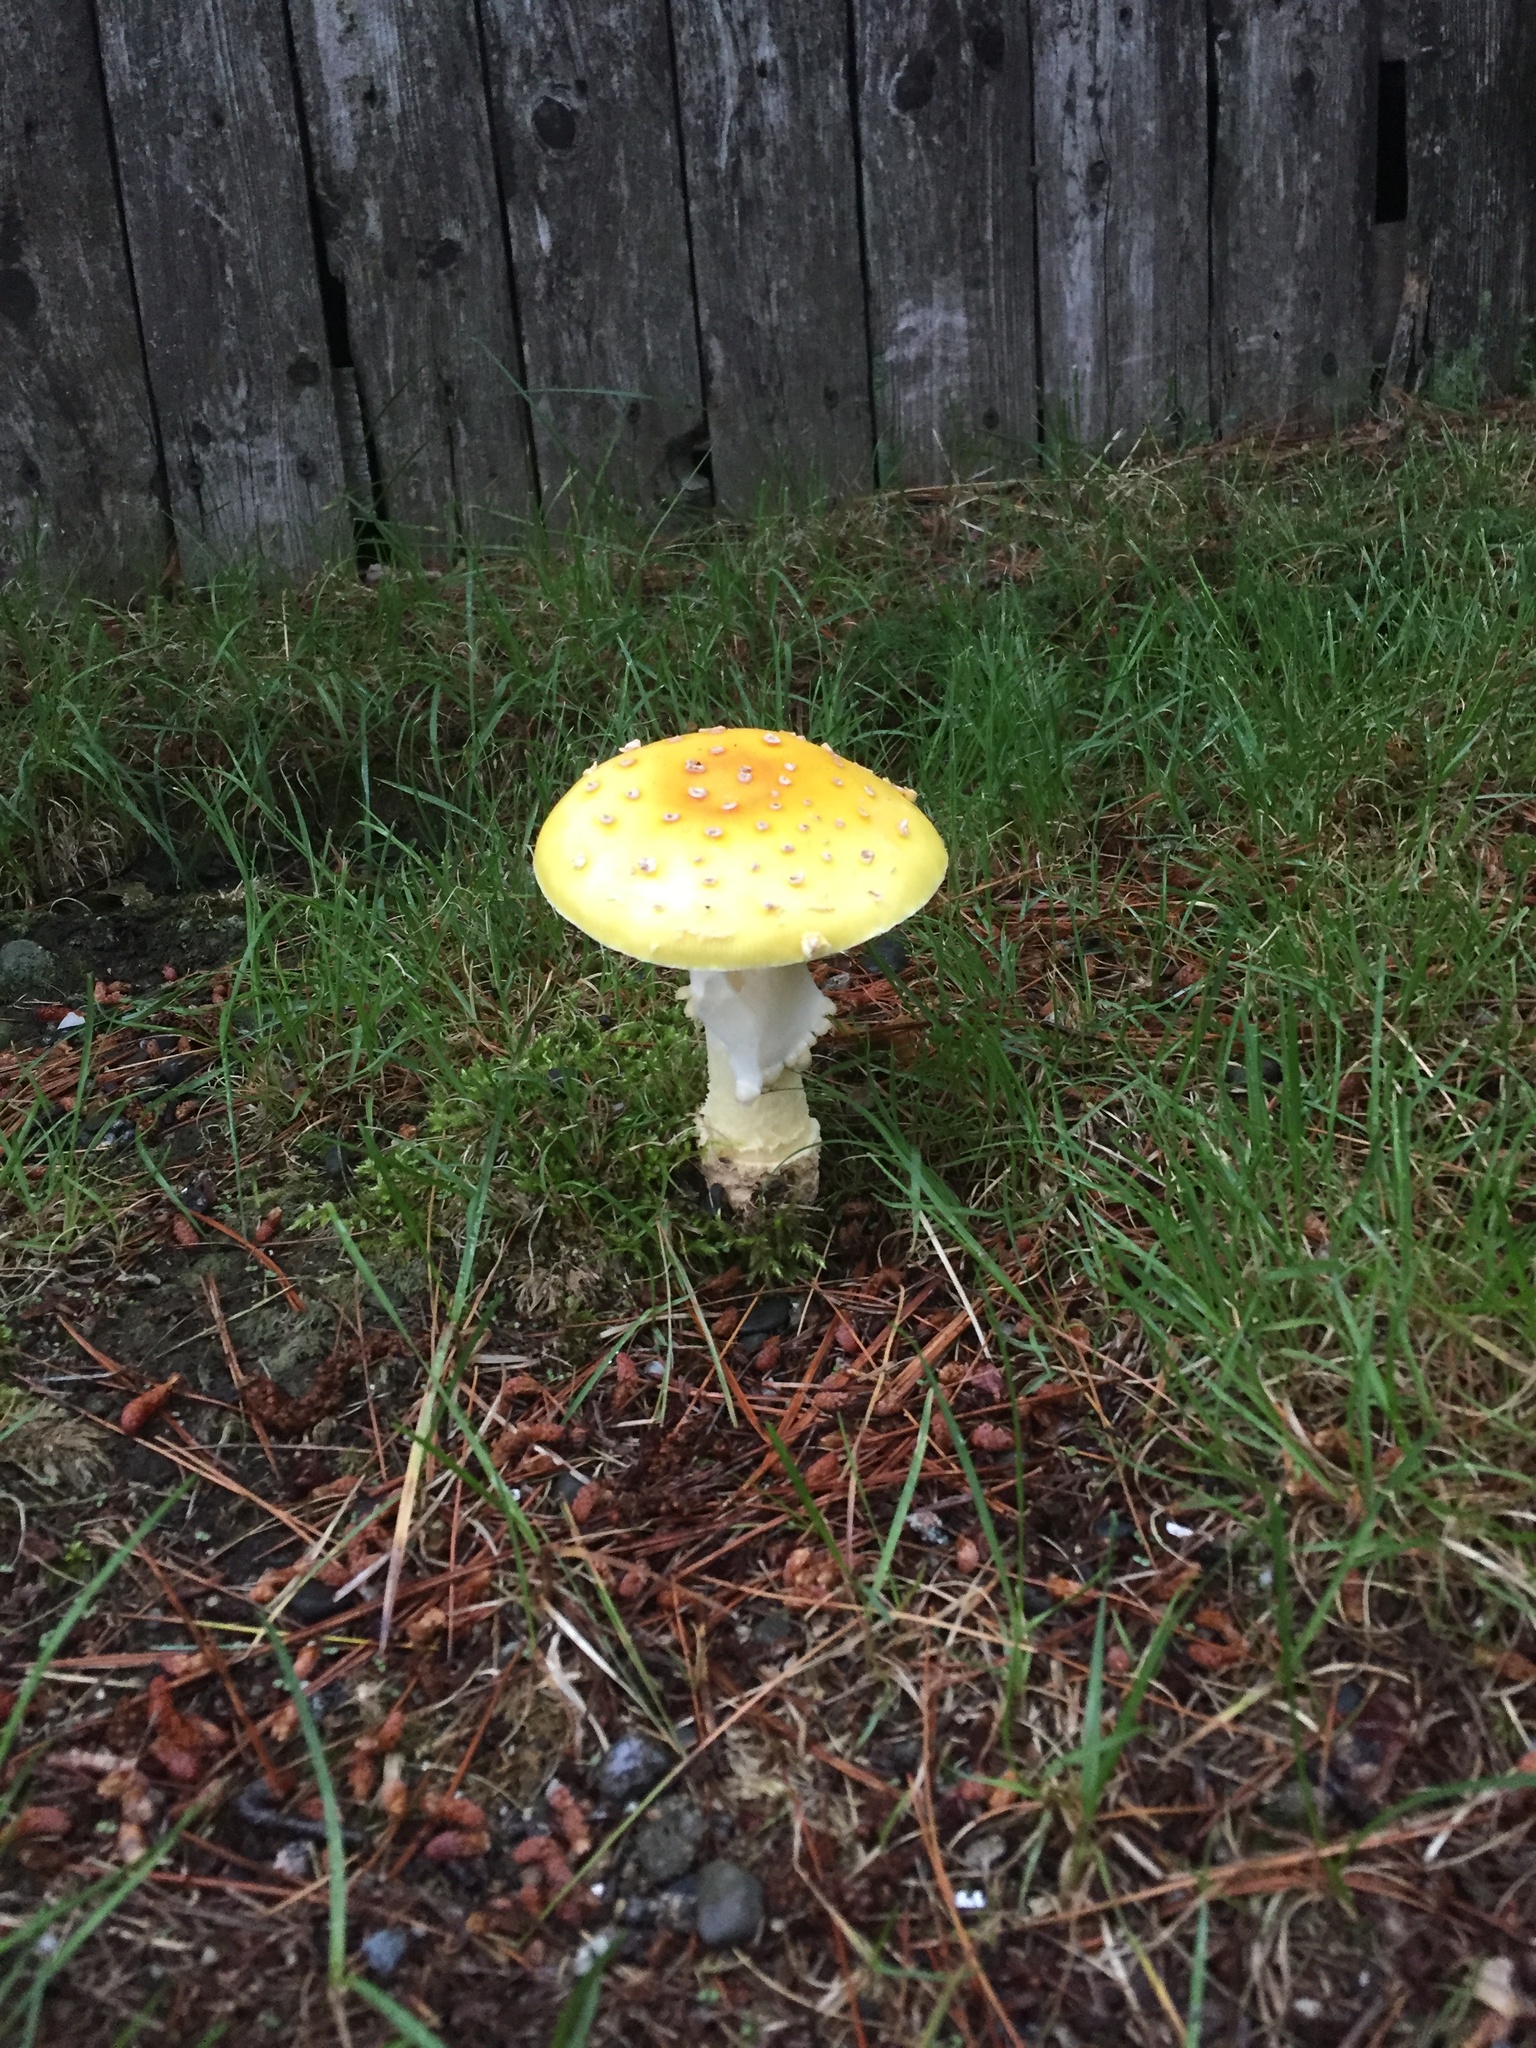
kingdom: Fungi
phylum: Basidiomycota
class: Agaricomycetes
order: Agaricales
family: Amanitaceae
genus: Amanita
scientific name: Amanita muscaria
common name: Fly agaric
